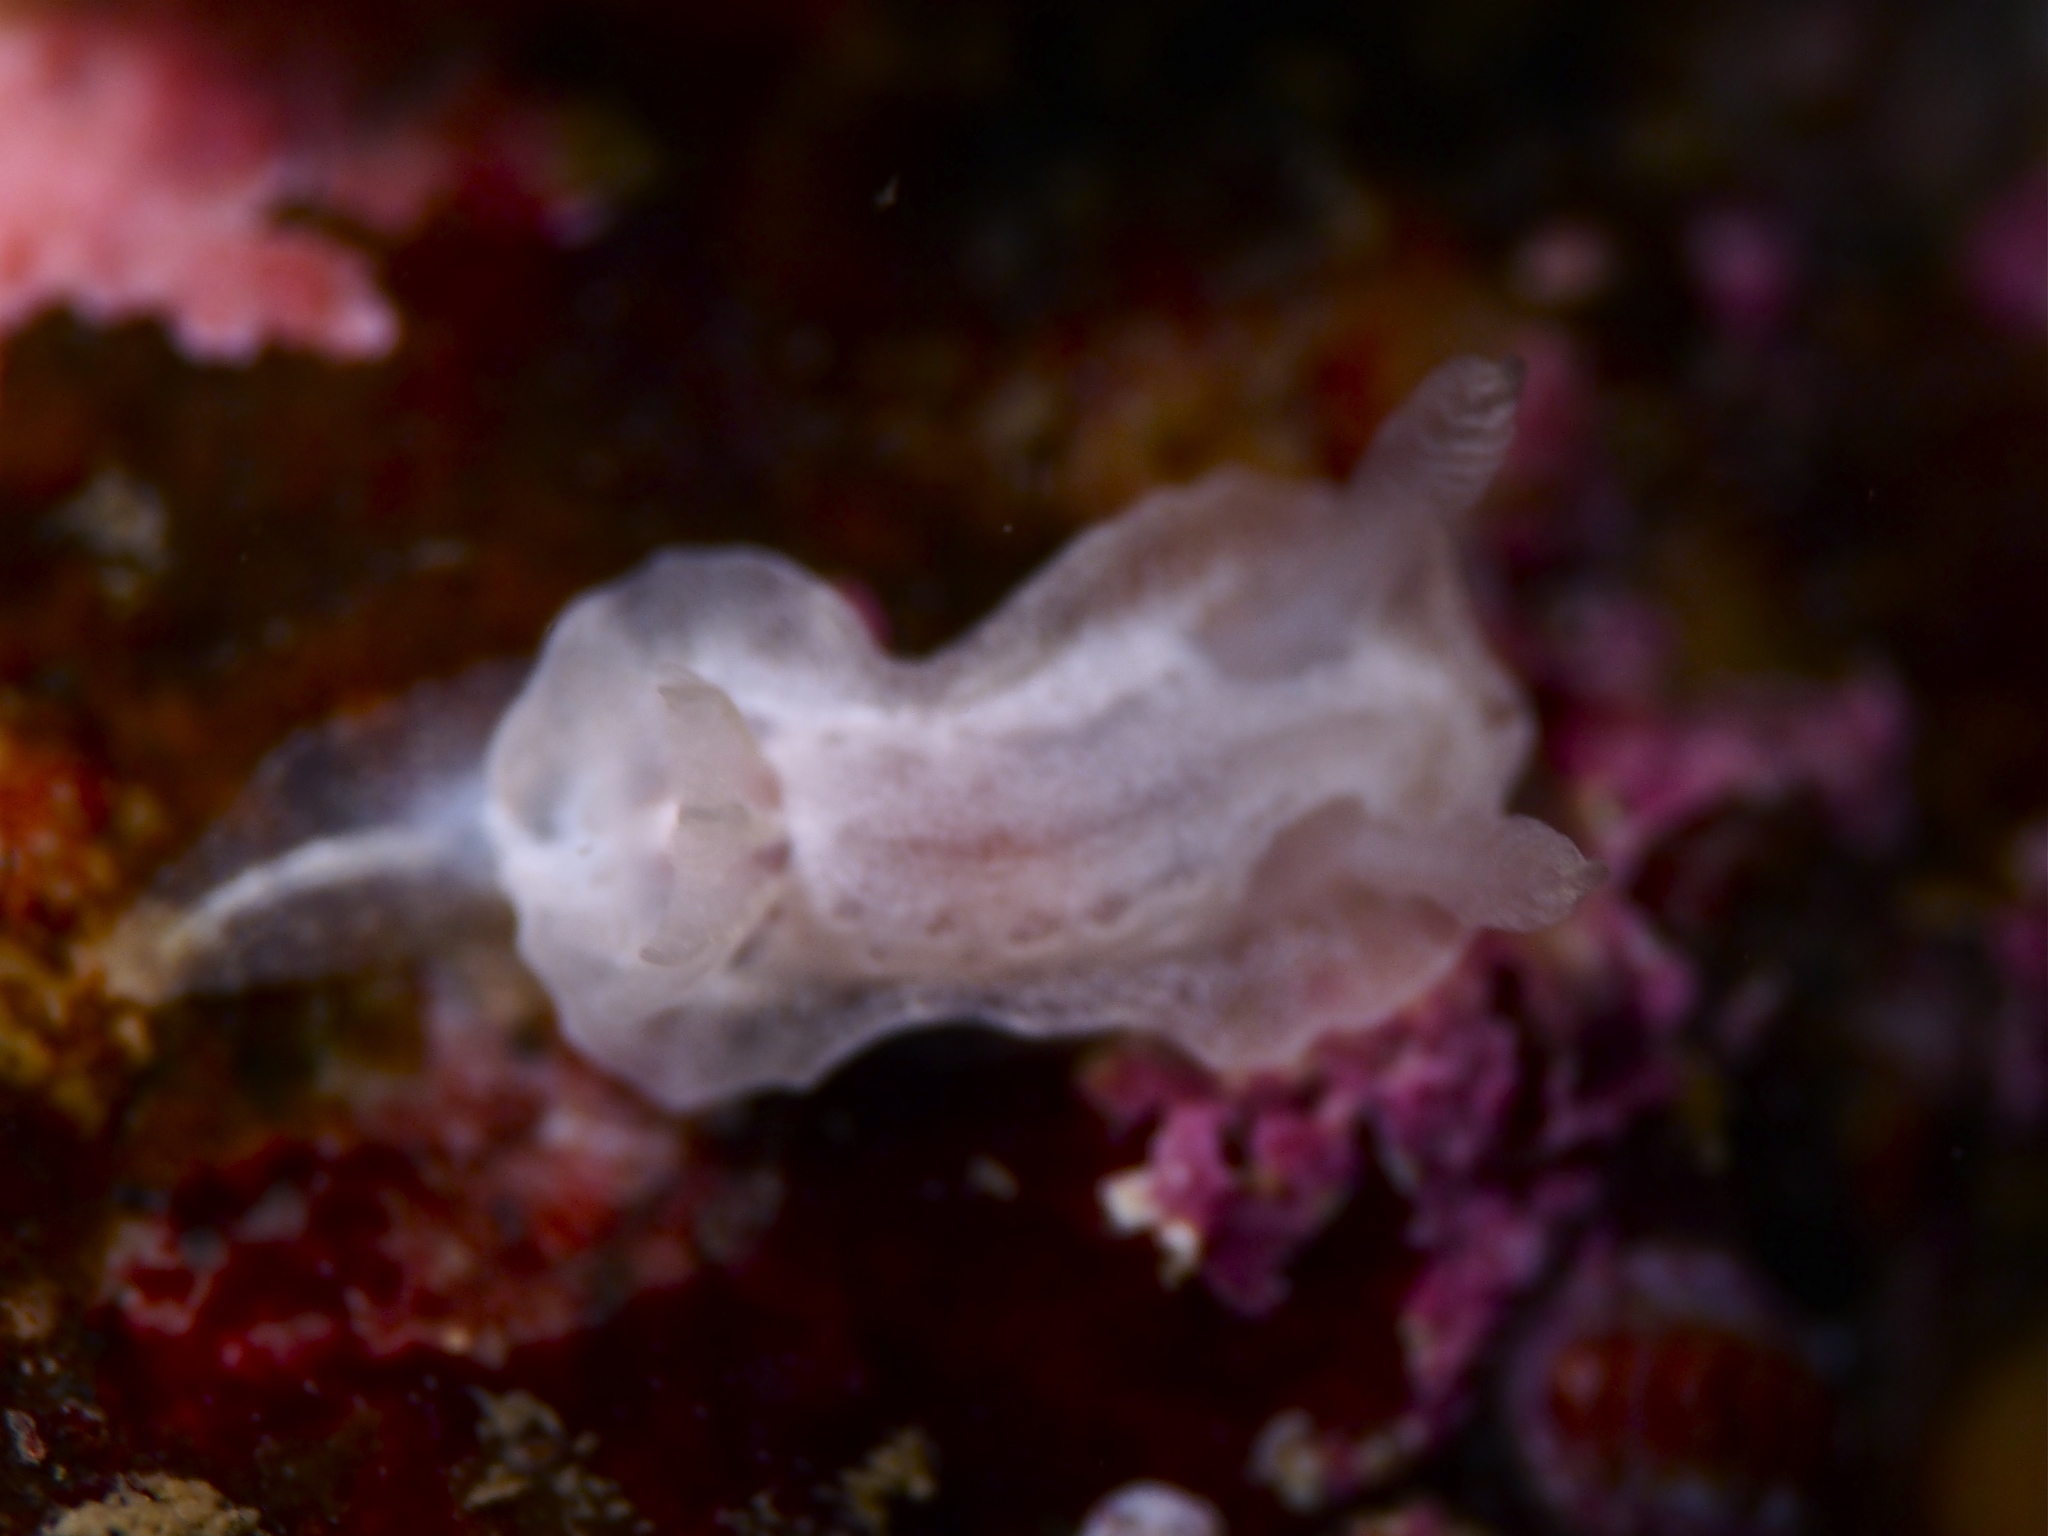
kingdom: Animalia
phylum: Mollusca
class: Gastropoda
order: Nudibranchia
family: Goniodorididae
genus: Okenia
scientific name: Okenia
